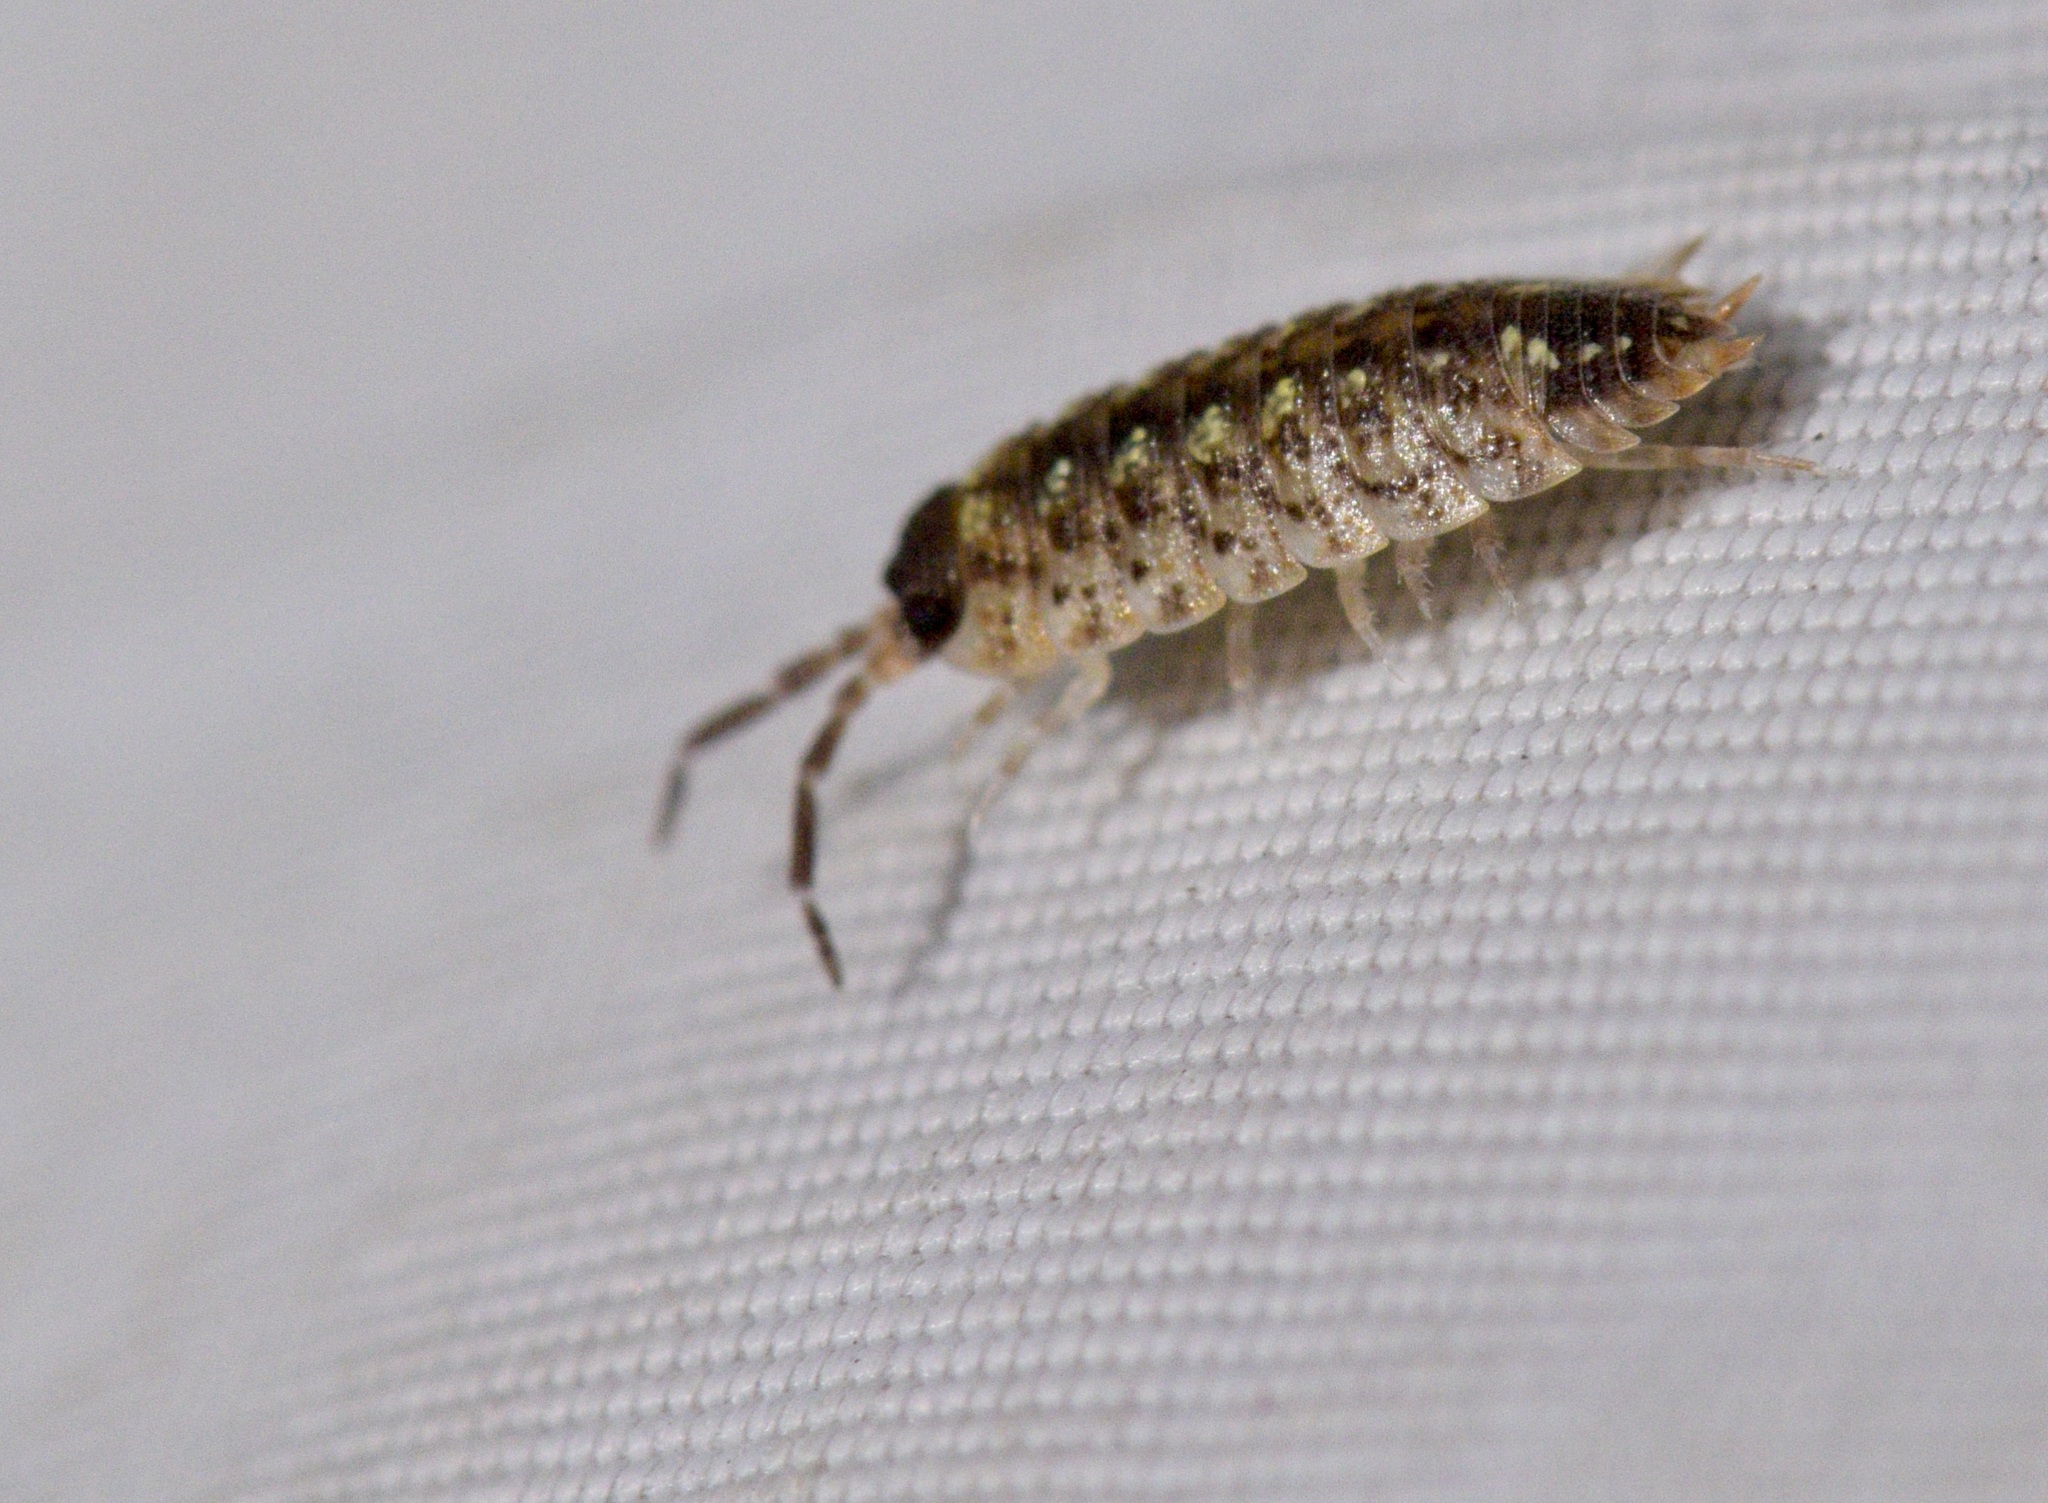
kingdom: Animalia
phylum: Arthropoda
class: Malacostraca
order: Isopoda
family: Porcellionidae
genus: Porcellio
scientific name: Porcellio spinicornis
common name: Painted woodlouse
